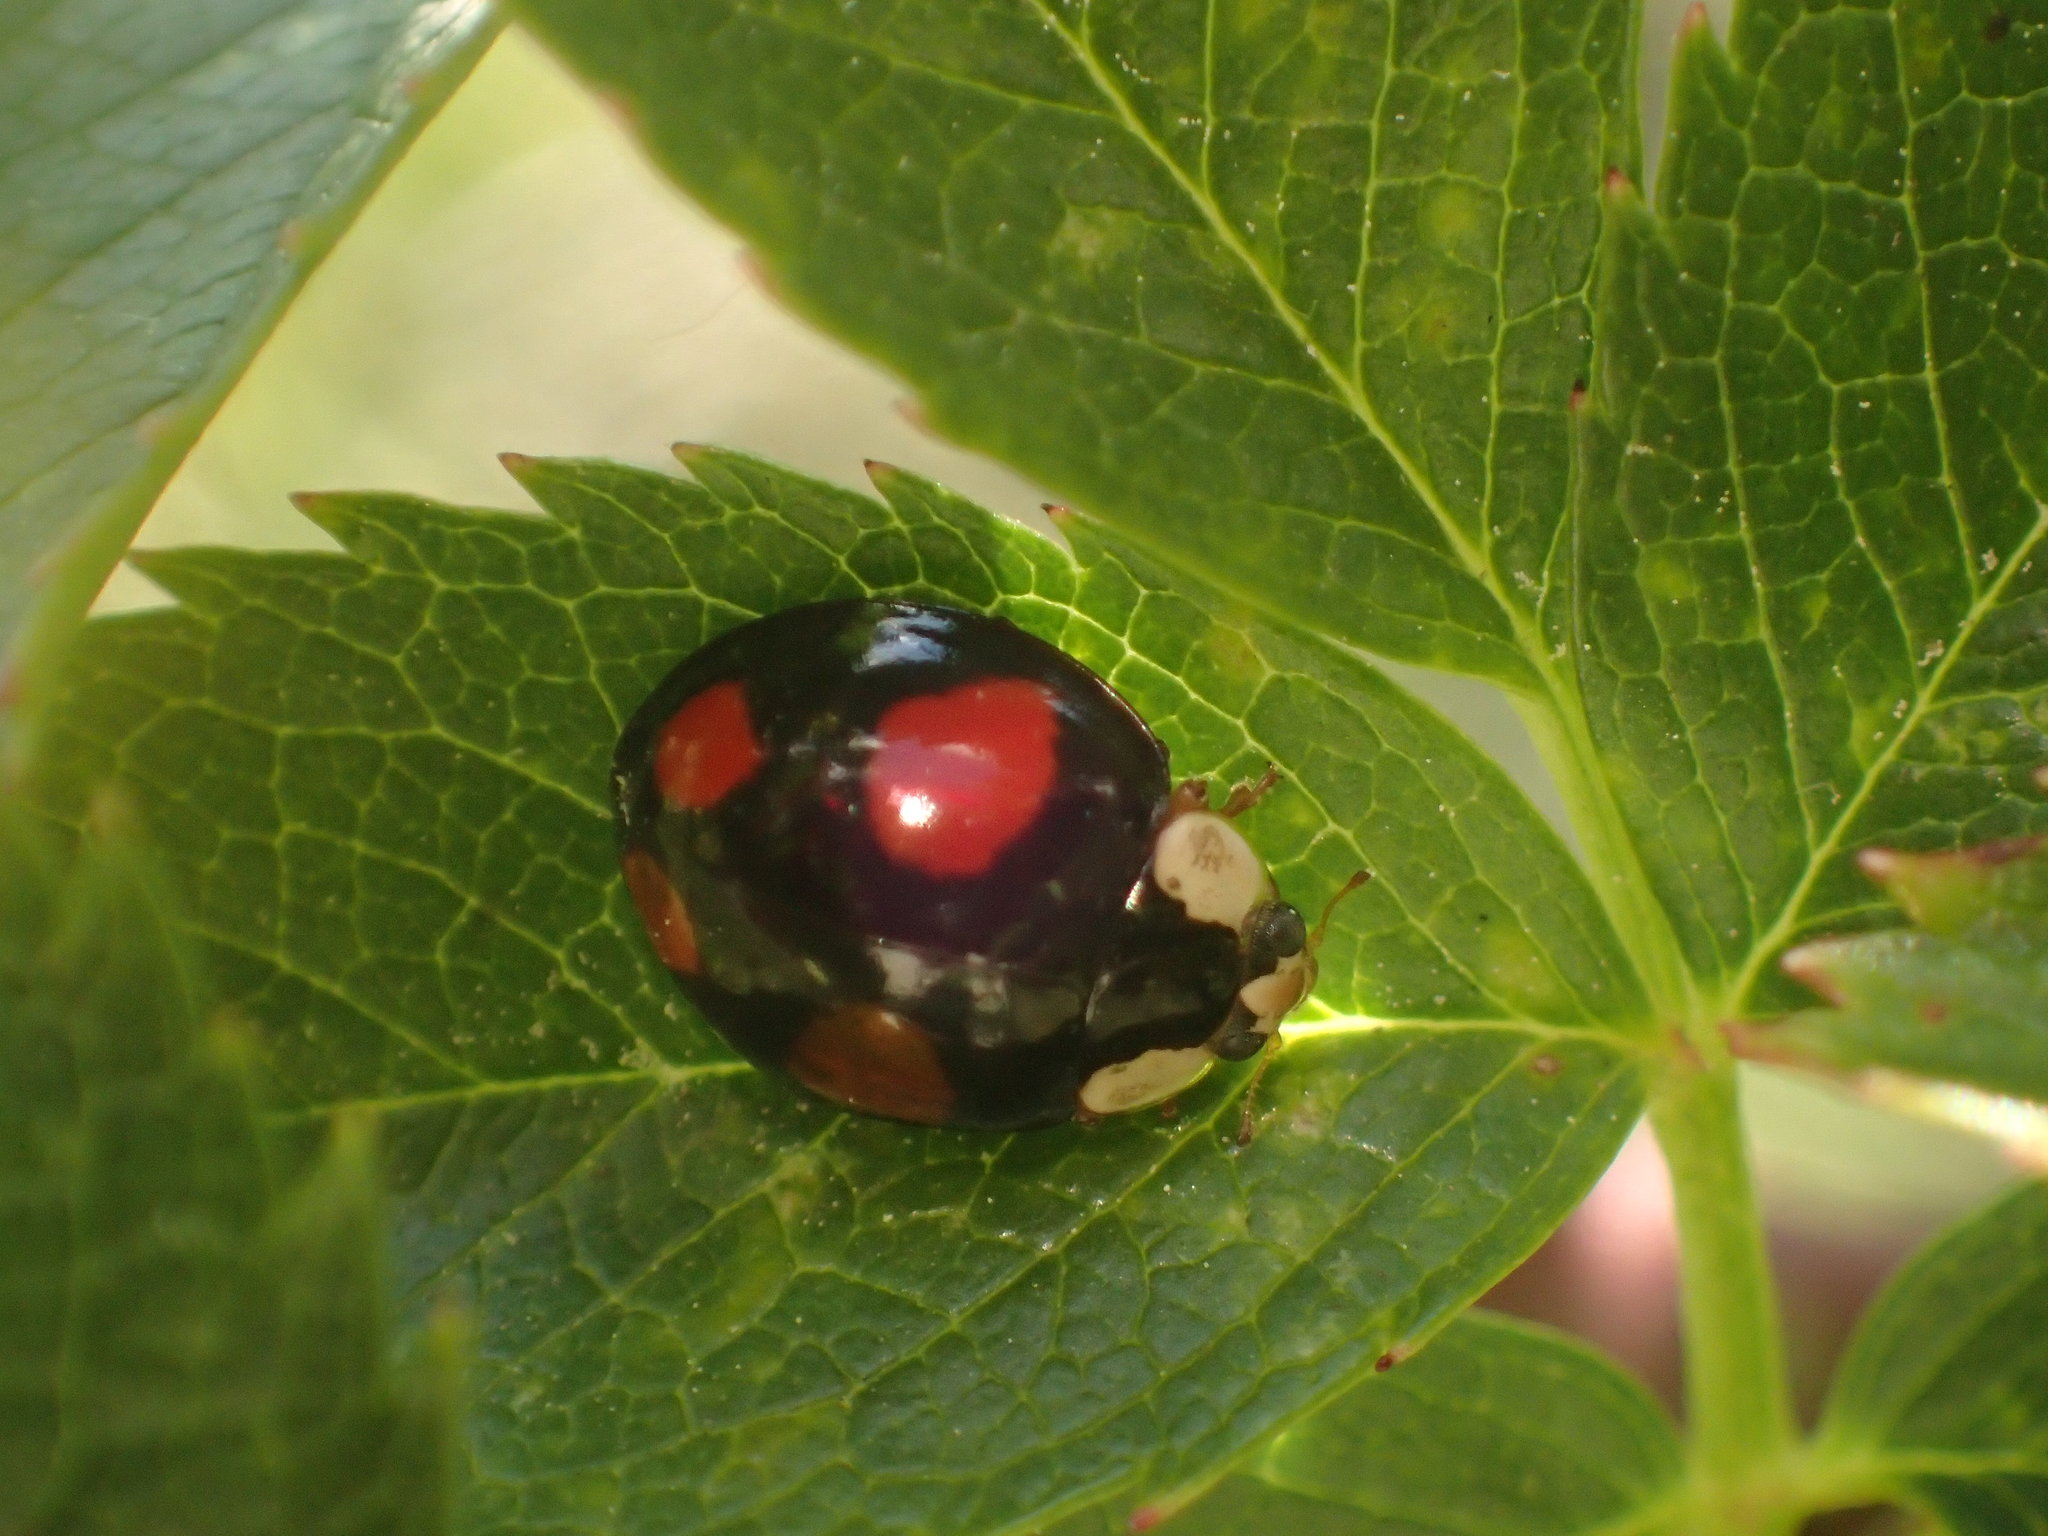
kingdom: Animalia
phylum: Arthropoda
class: Insecta
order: Coleoptera
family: Coccinellidae
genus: Harmonia
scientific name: Harmonia axyridis
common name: Harlequin ladybird
